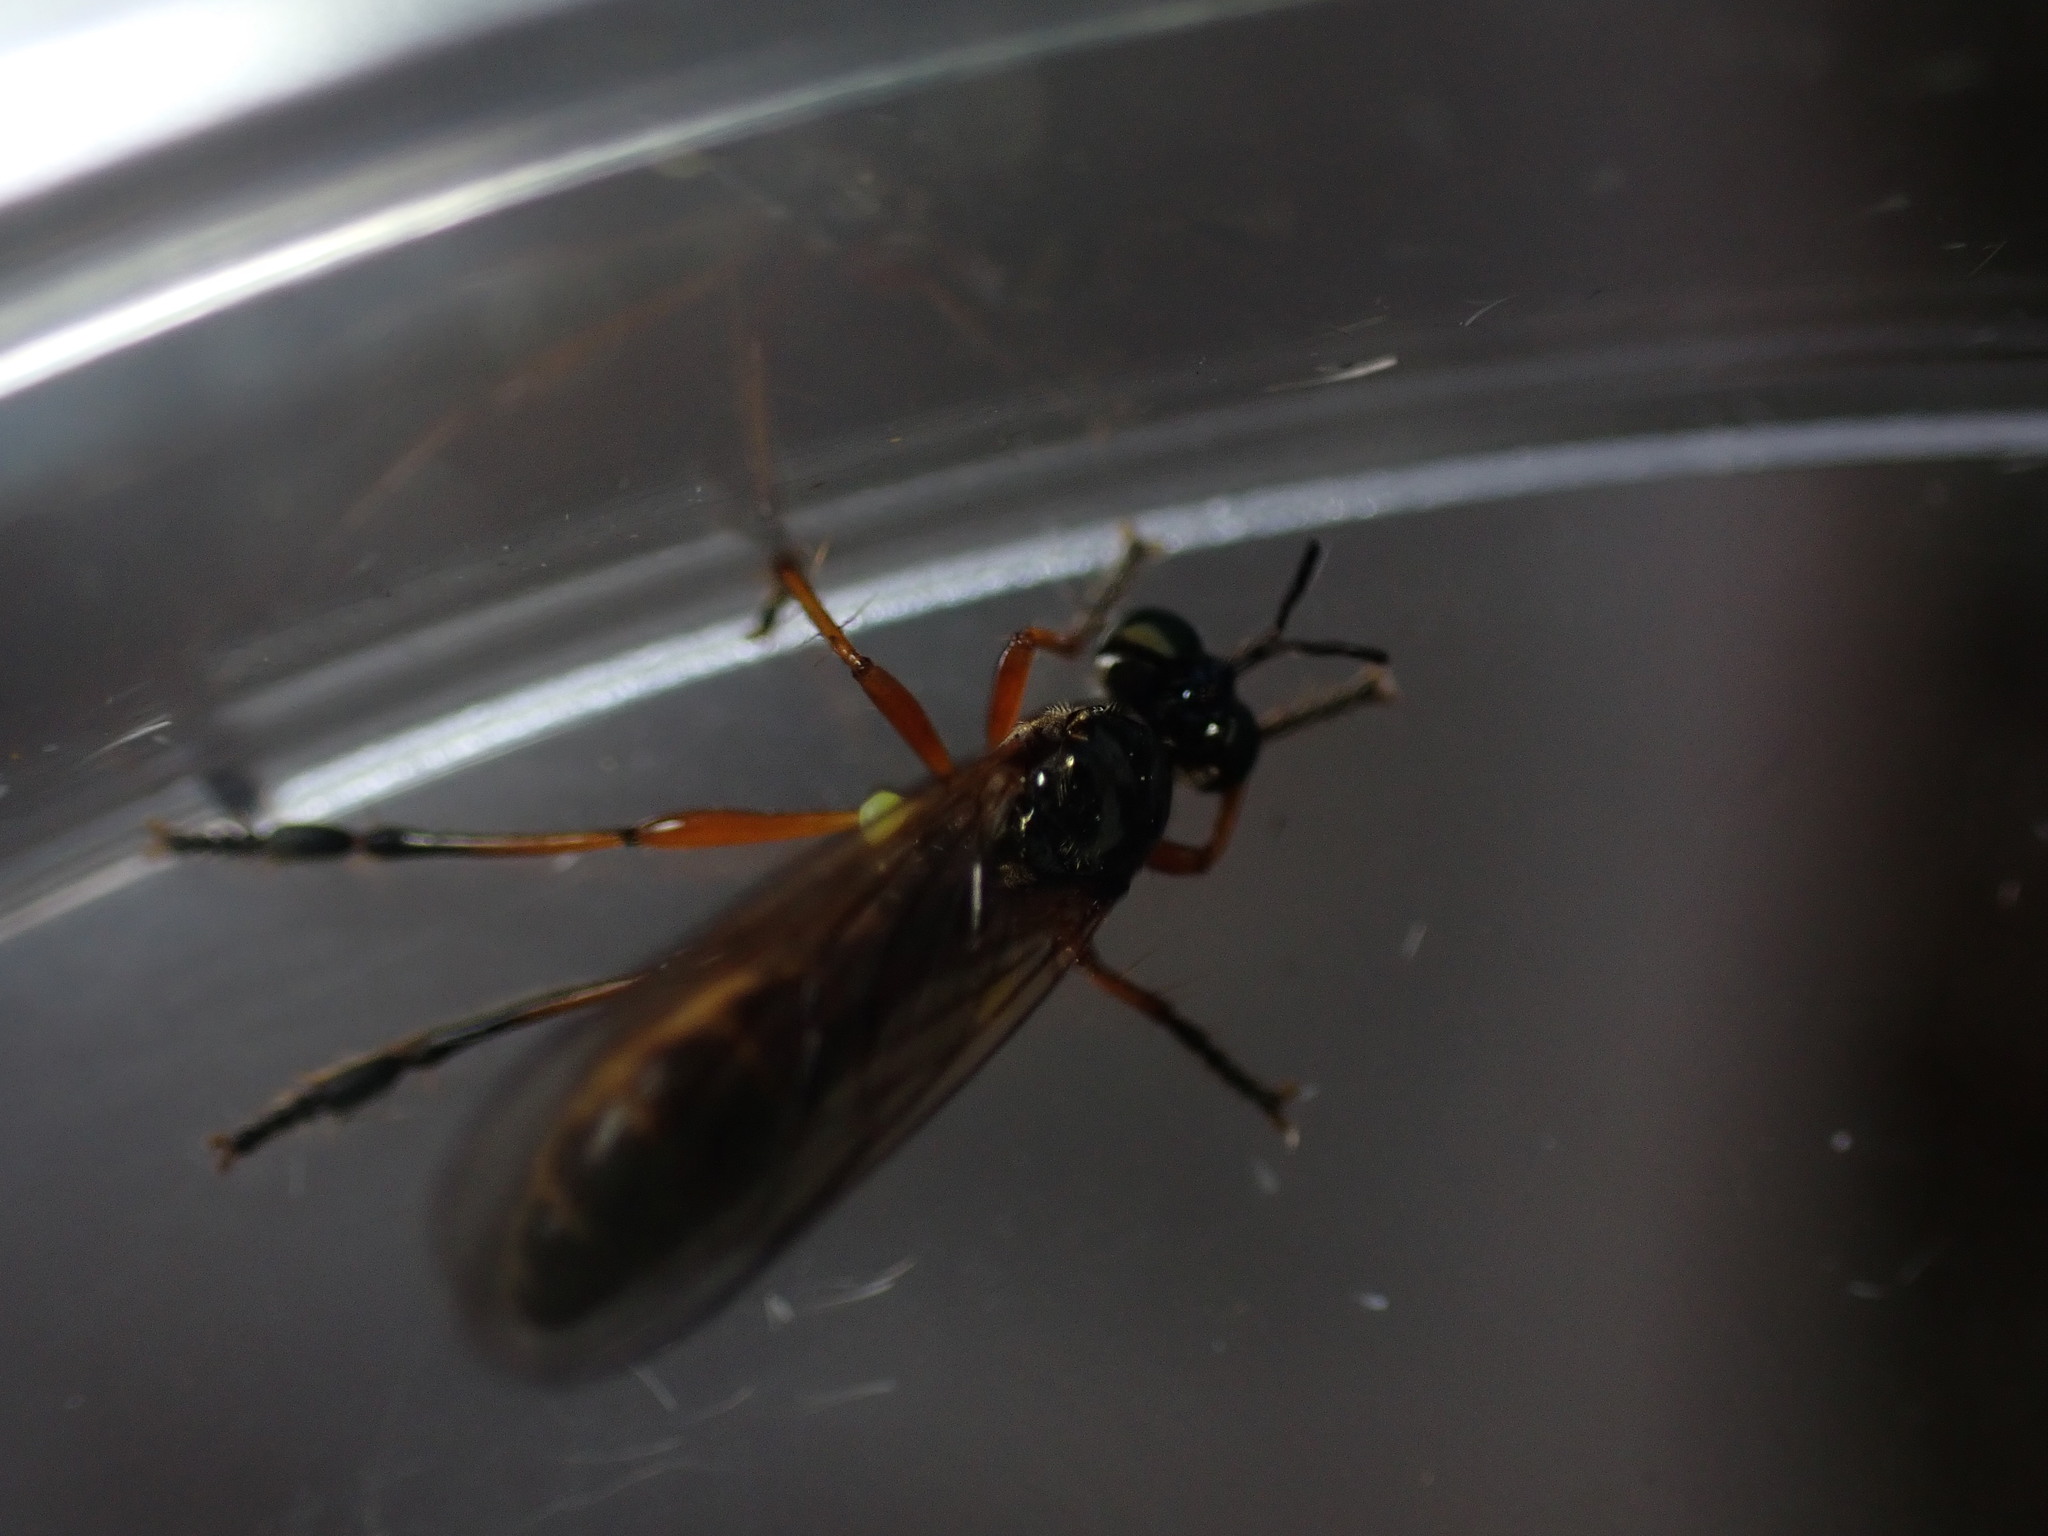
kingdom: Animalia
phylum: Arthropoda
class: Insecta
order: Diptera
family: Asilidae
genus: Dioctria
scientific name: Dioctria bicincta
